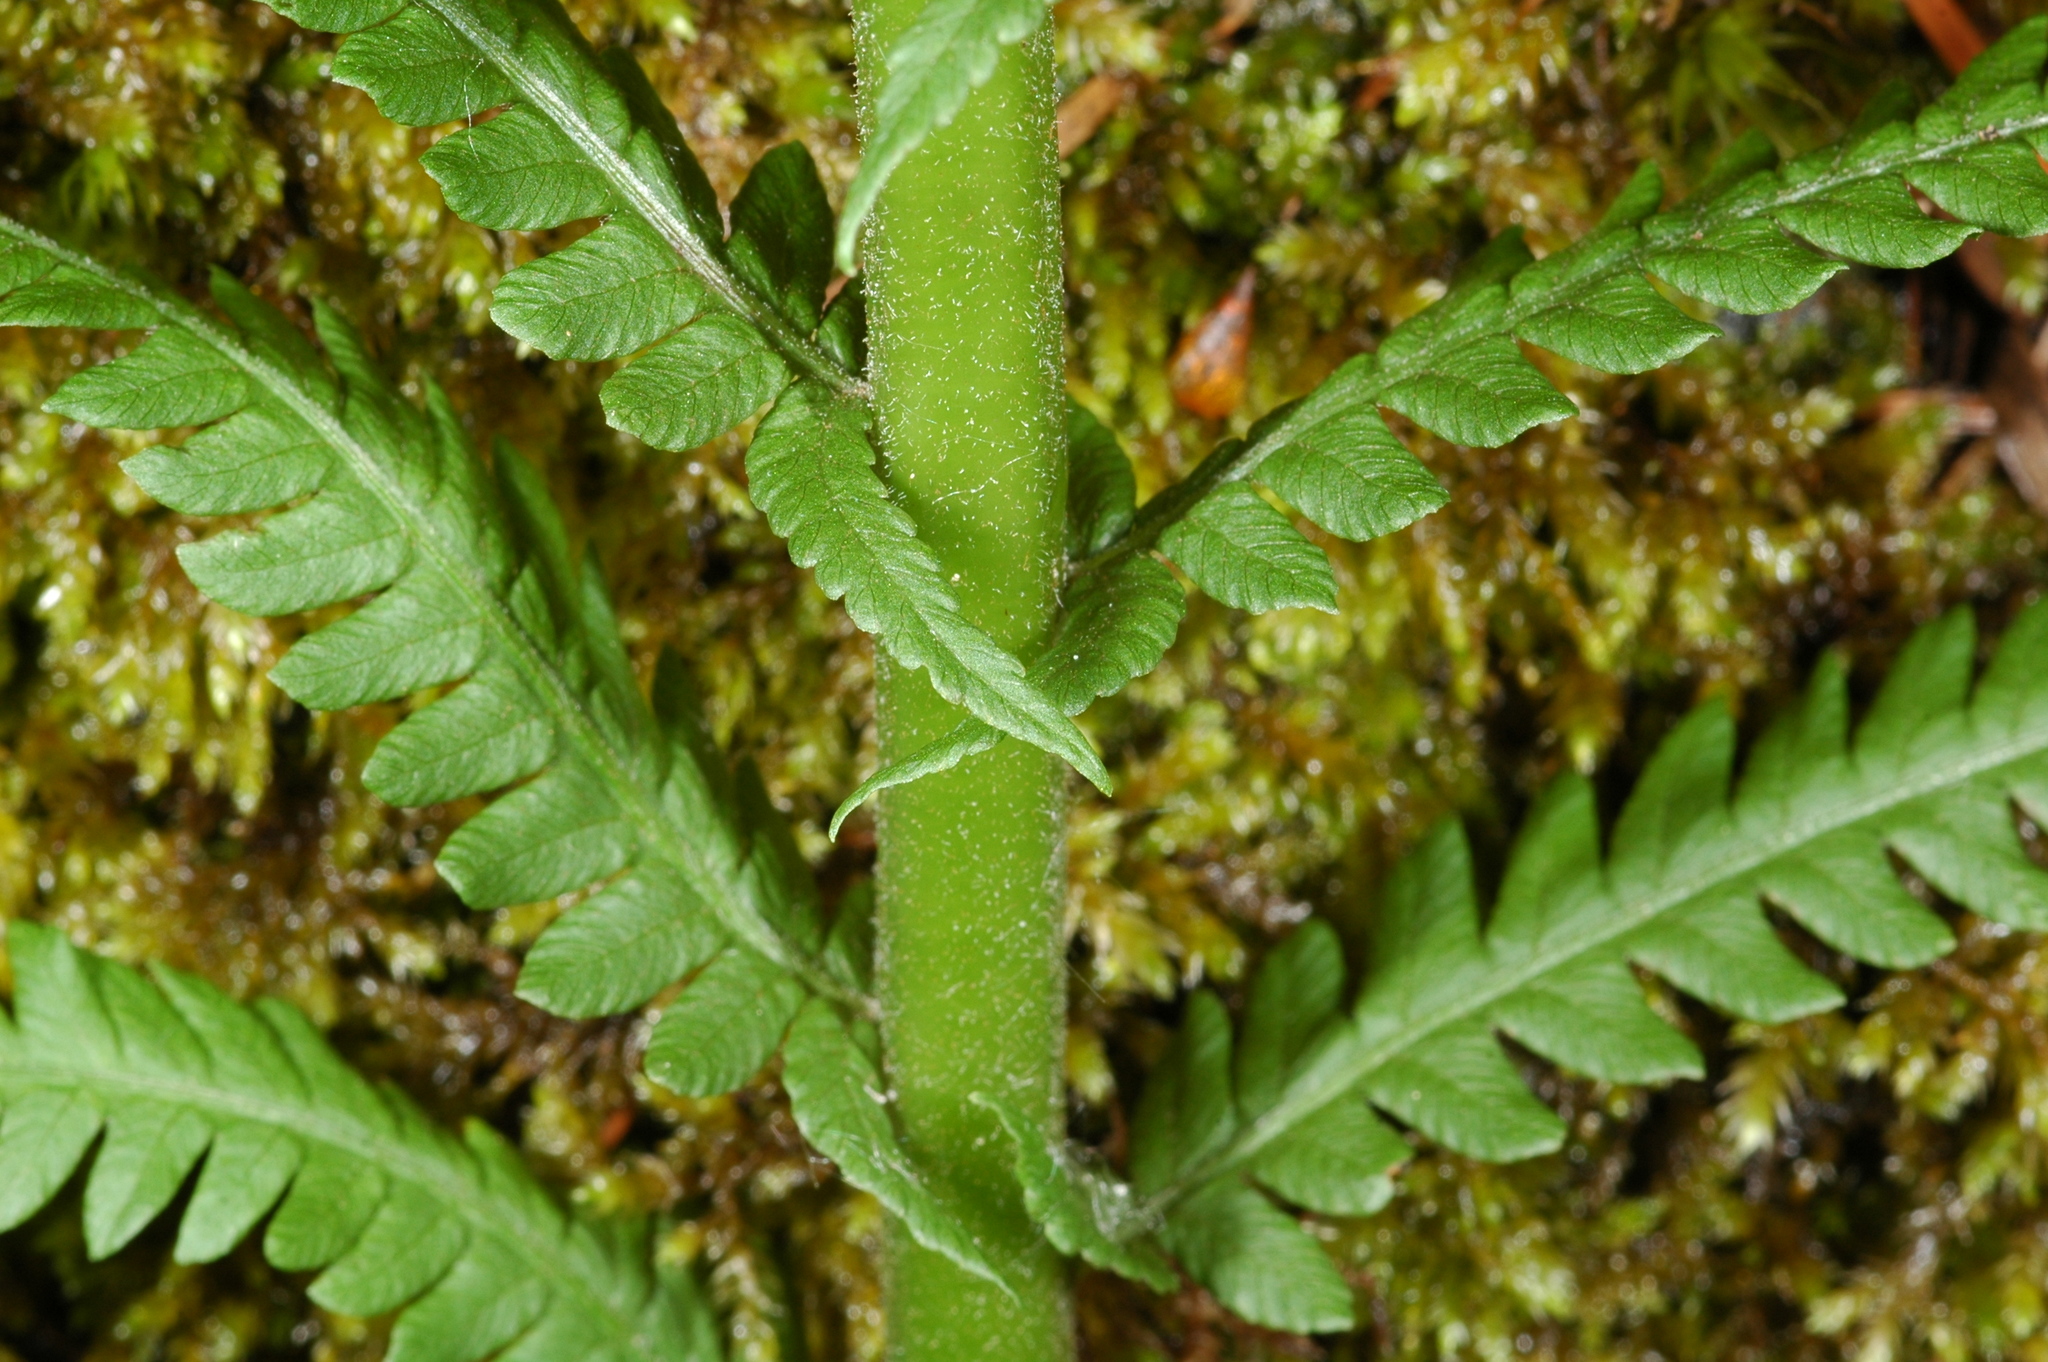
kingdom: Plantae
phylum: Tracheophyta
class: Polypodiopsida
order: Polypodiales
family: Onocleaceae
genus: Matteuccia
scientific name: Matteuccia struthiopteris
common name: Ostrich fern
